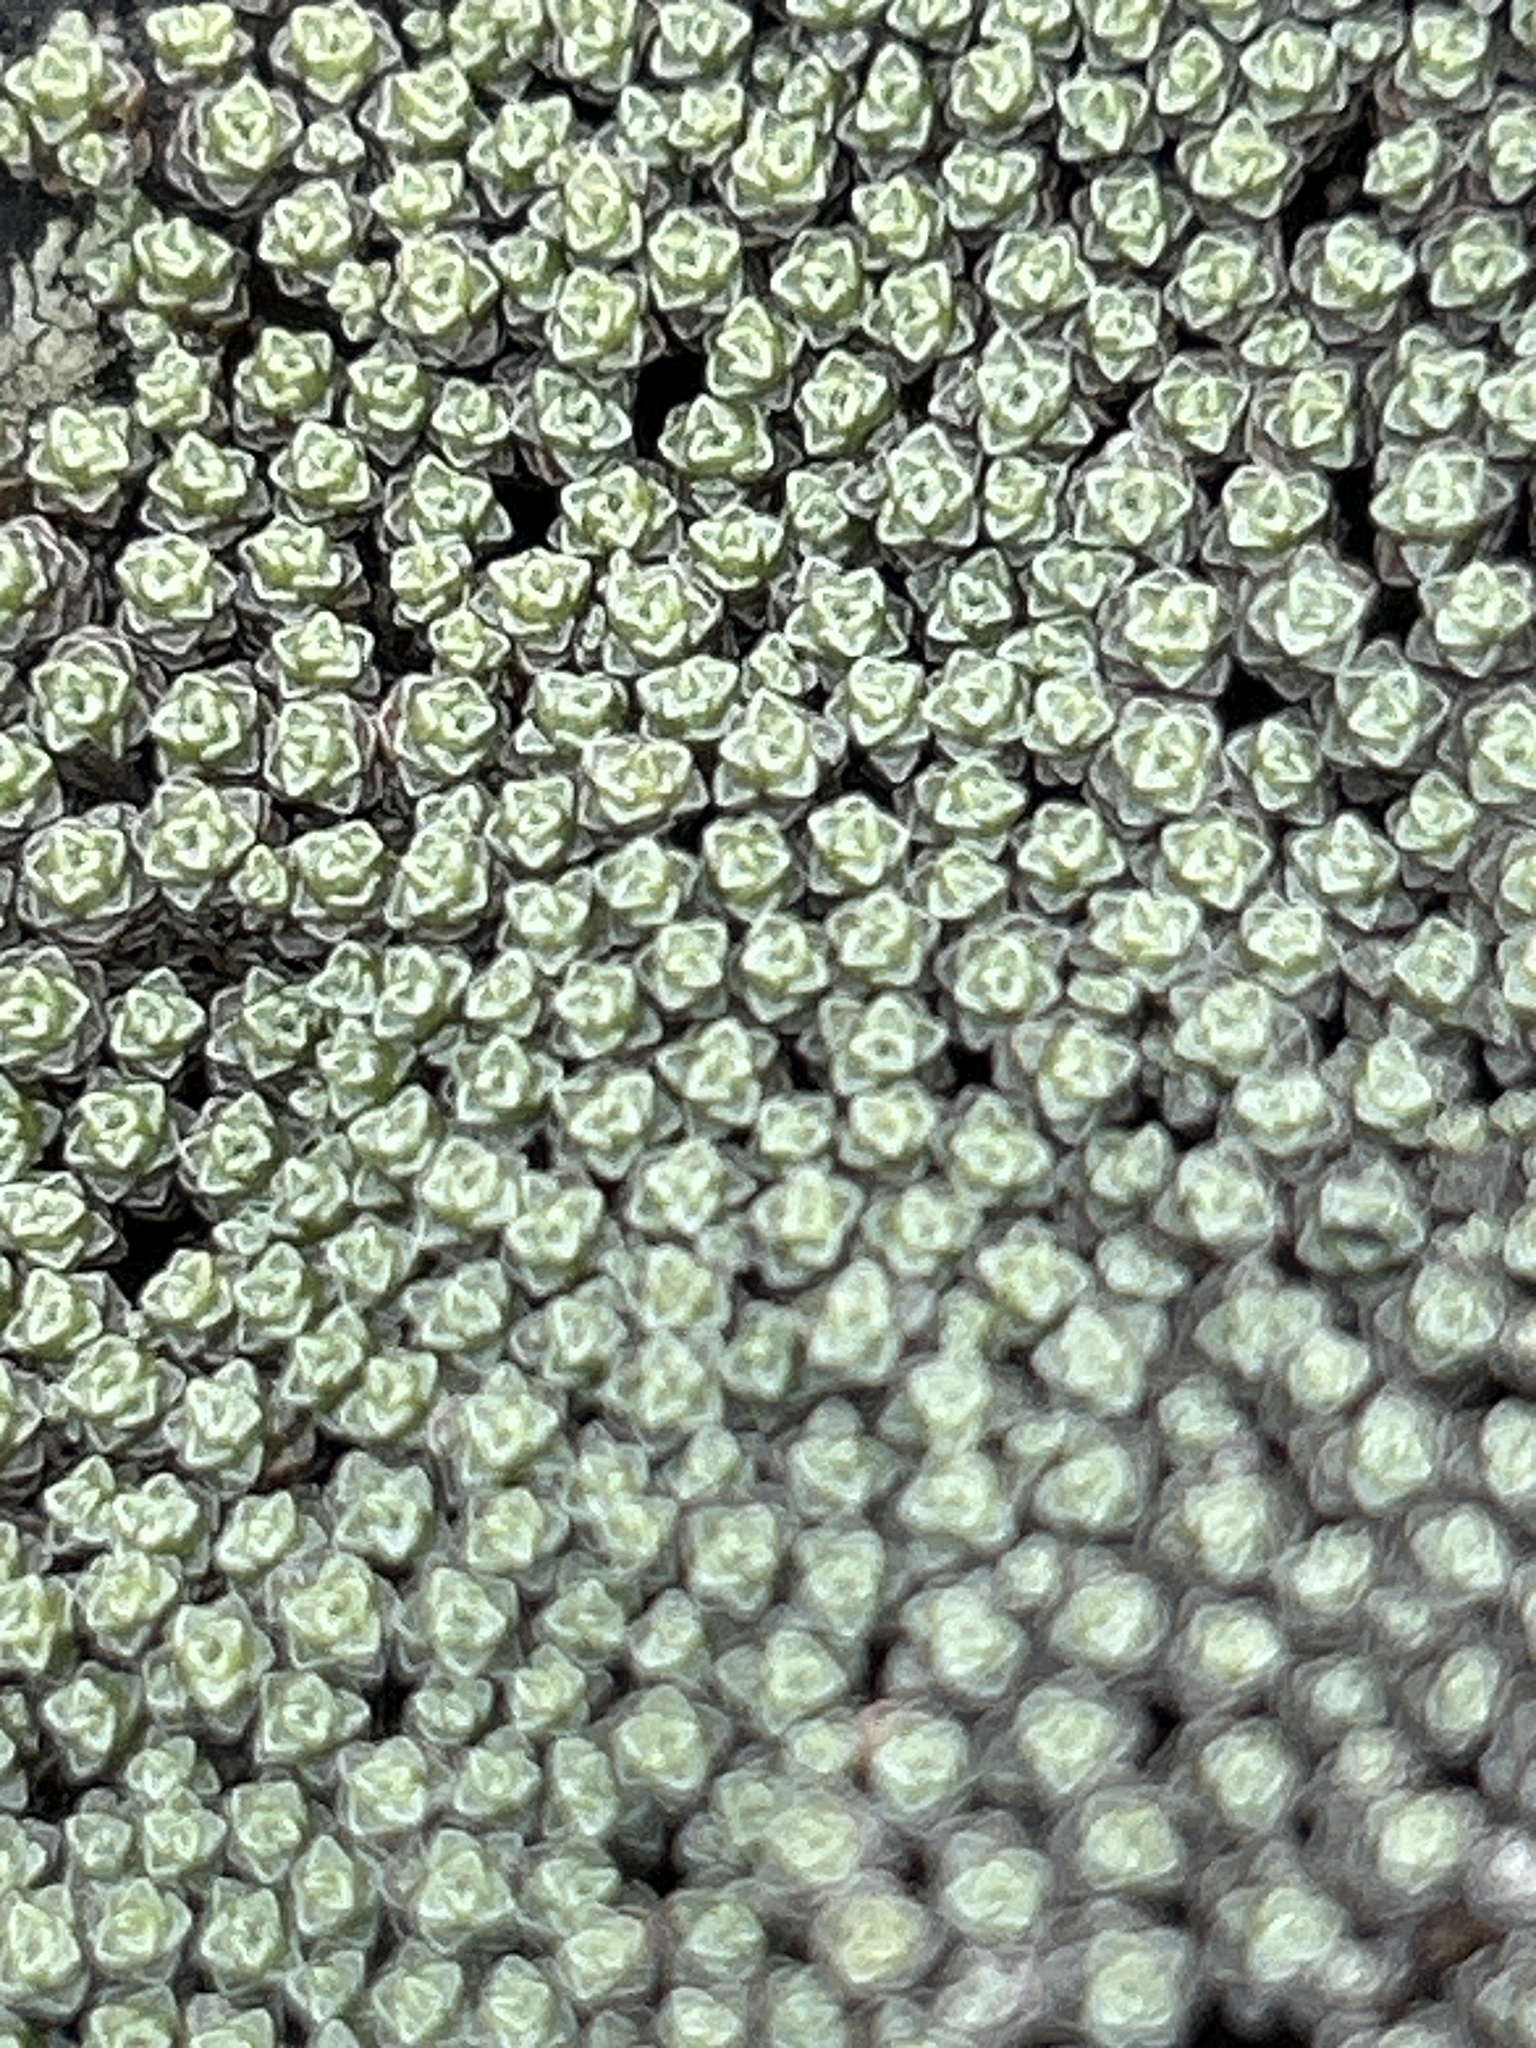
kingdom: Plantae
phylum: Tracheophyta
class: Magnoliopsida
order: Asterales
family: Asteraceae
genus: Raoulia
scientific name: Raoulia australis
